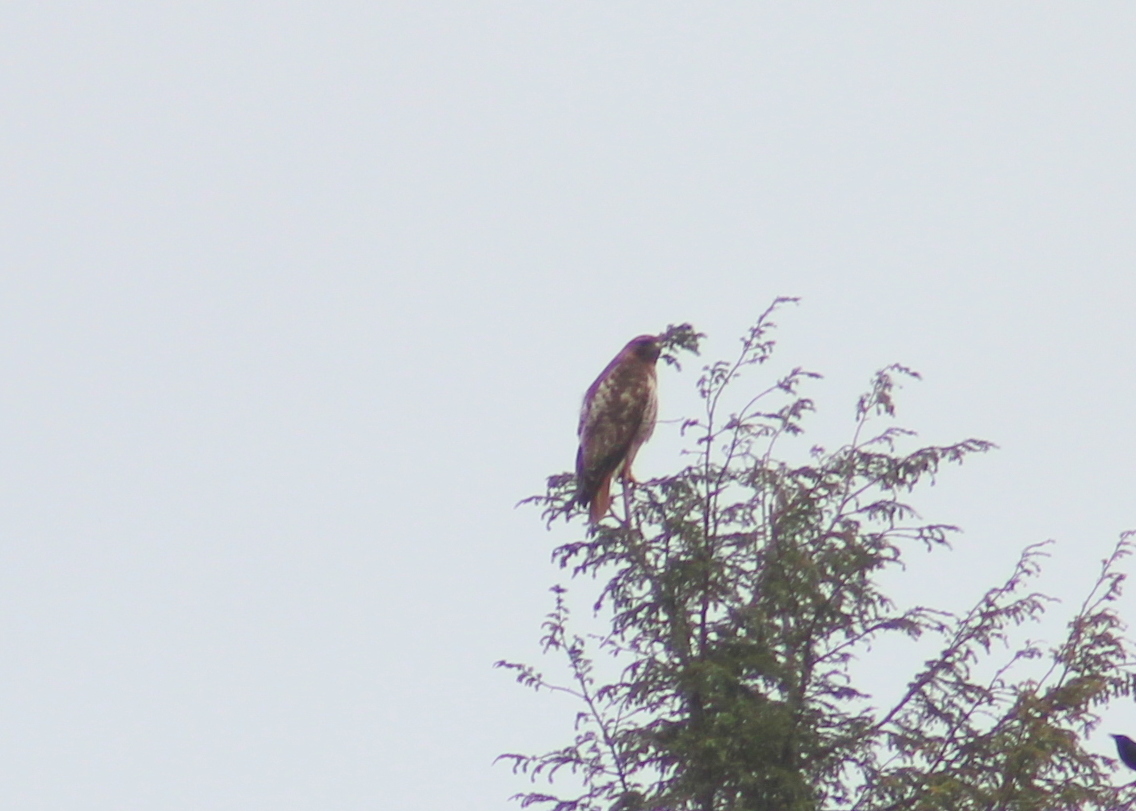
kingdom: Animalia
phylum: Chordata
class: Aves
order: Accipitriformes
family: Accipitridae
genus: Buteo
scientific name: Buteo jamaicensis
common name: Red-tailed hawk
